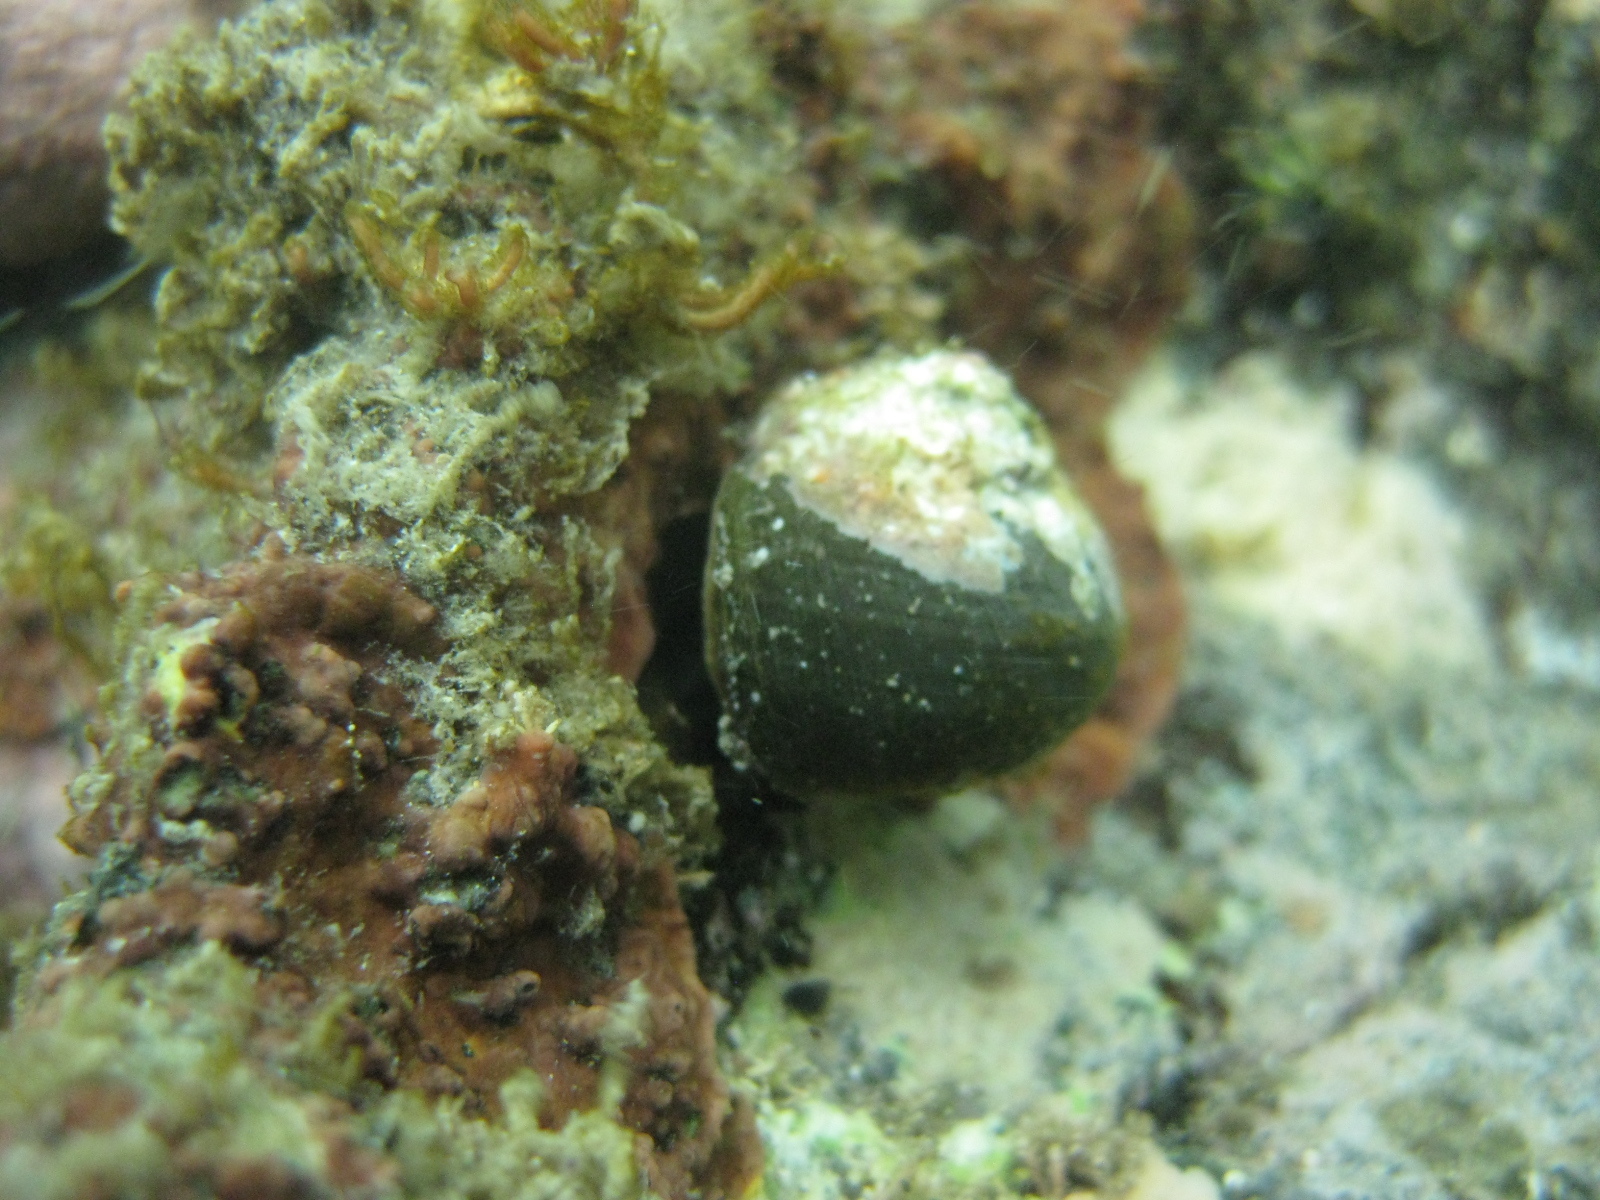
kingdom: Animalia
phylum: Mollusca
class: Gastropoda
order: Trochida
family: Turbinidae
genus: Lunella
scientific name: Lunella smaragda
